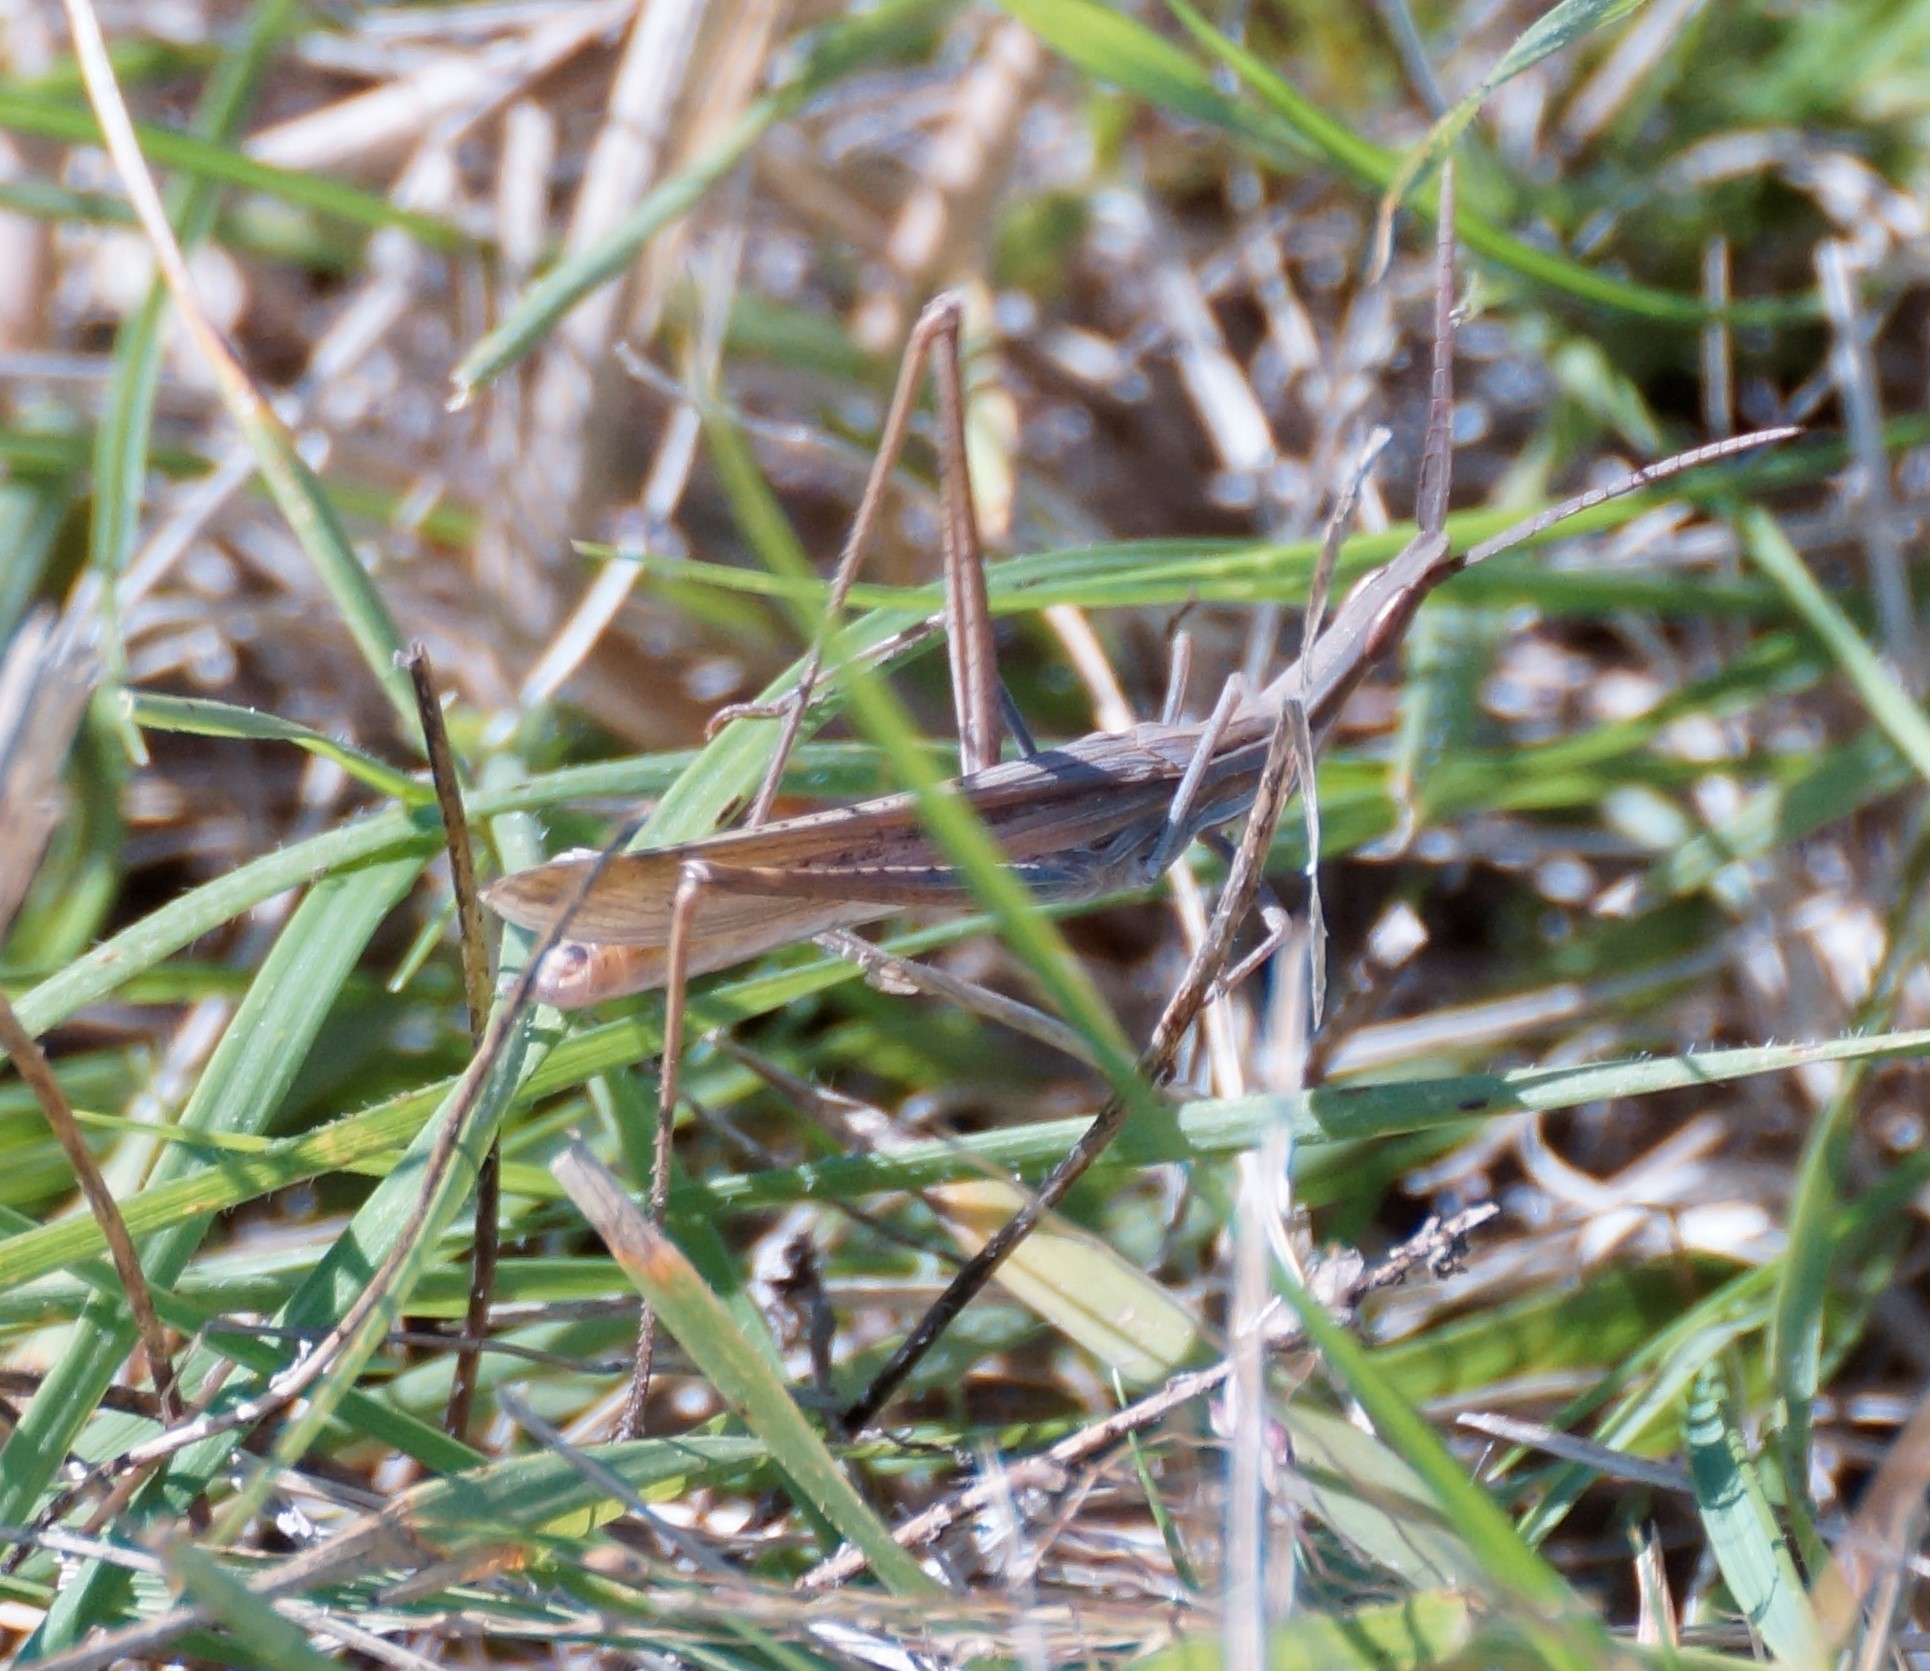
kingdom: Animalia
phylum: Arthropoda
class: Insecta
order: Orthoptera
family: Acrididae
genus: Acrida
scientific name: Acrida conica
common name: Giant green slantface
